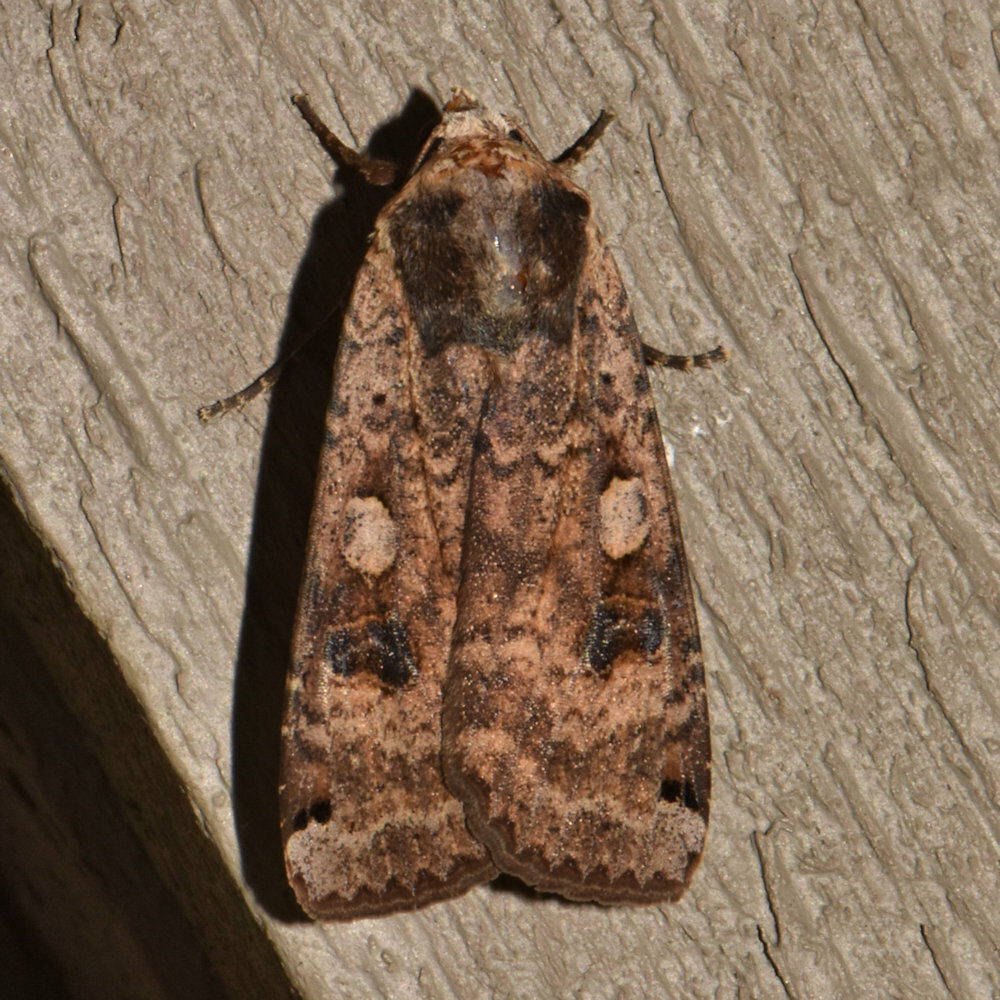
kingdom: Animalia
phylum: Arthropoda
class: Insecta
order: Lepidoptera
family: Noctuidae
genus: Noctua
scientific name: Noctua pronuba
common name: Large yellow underwing
